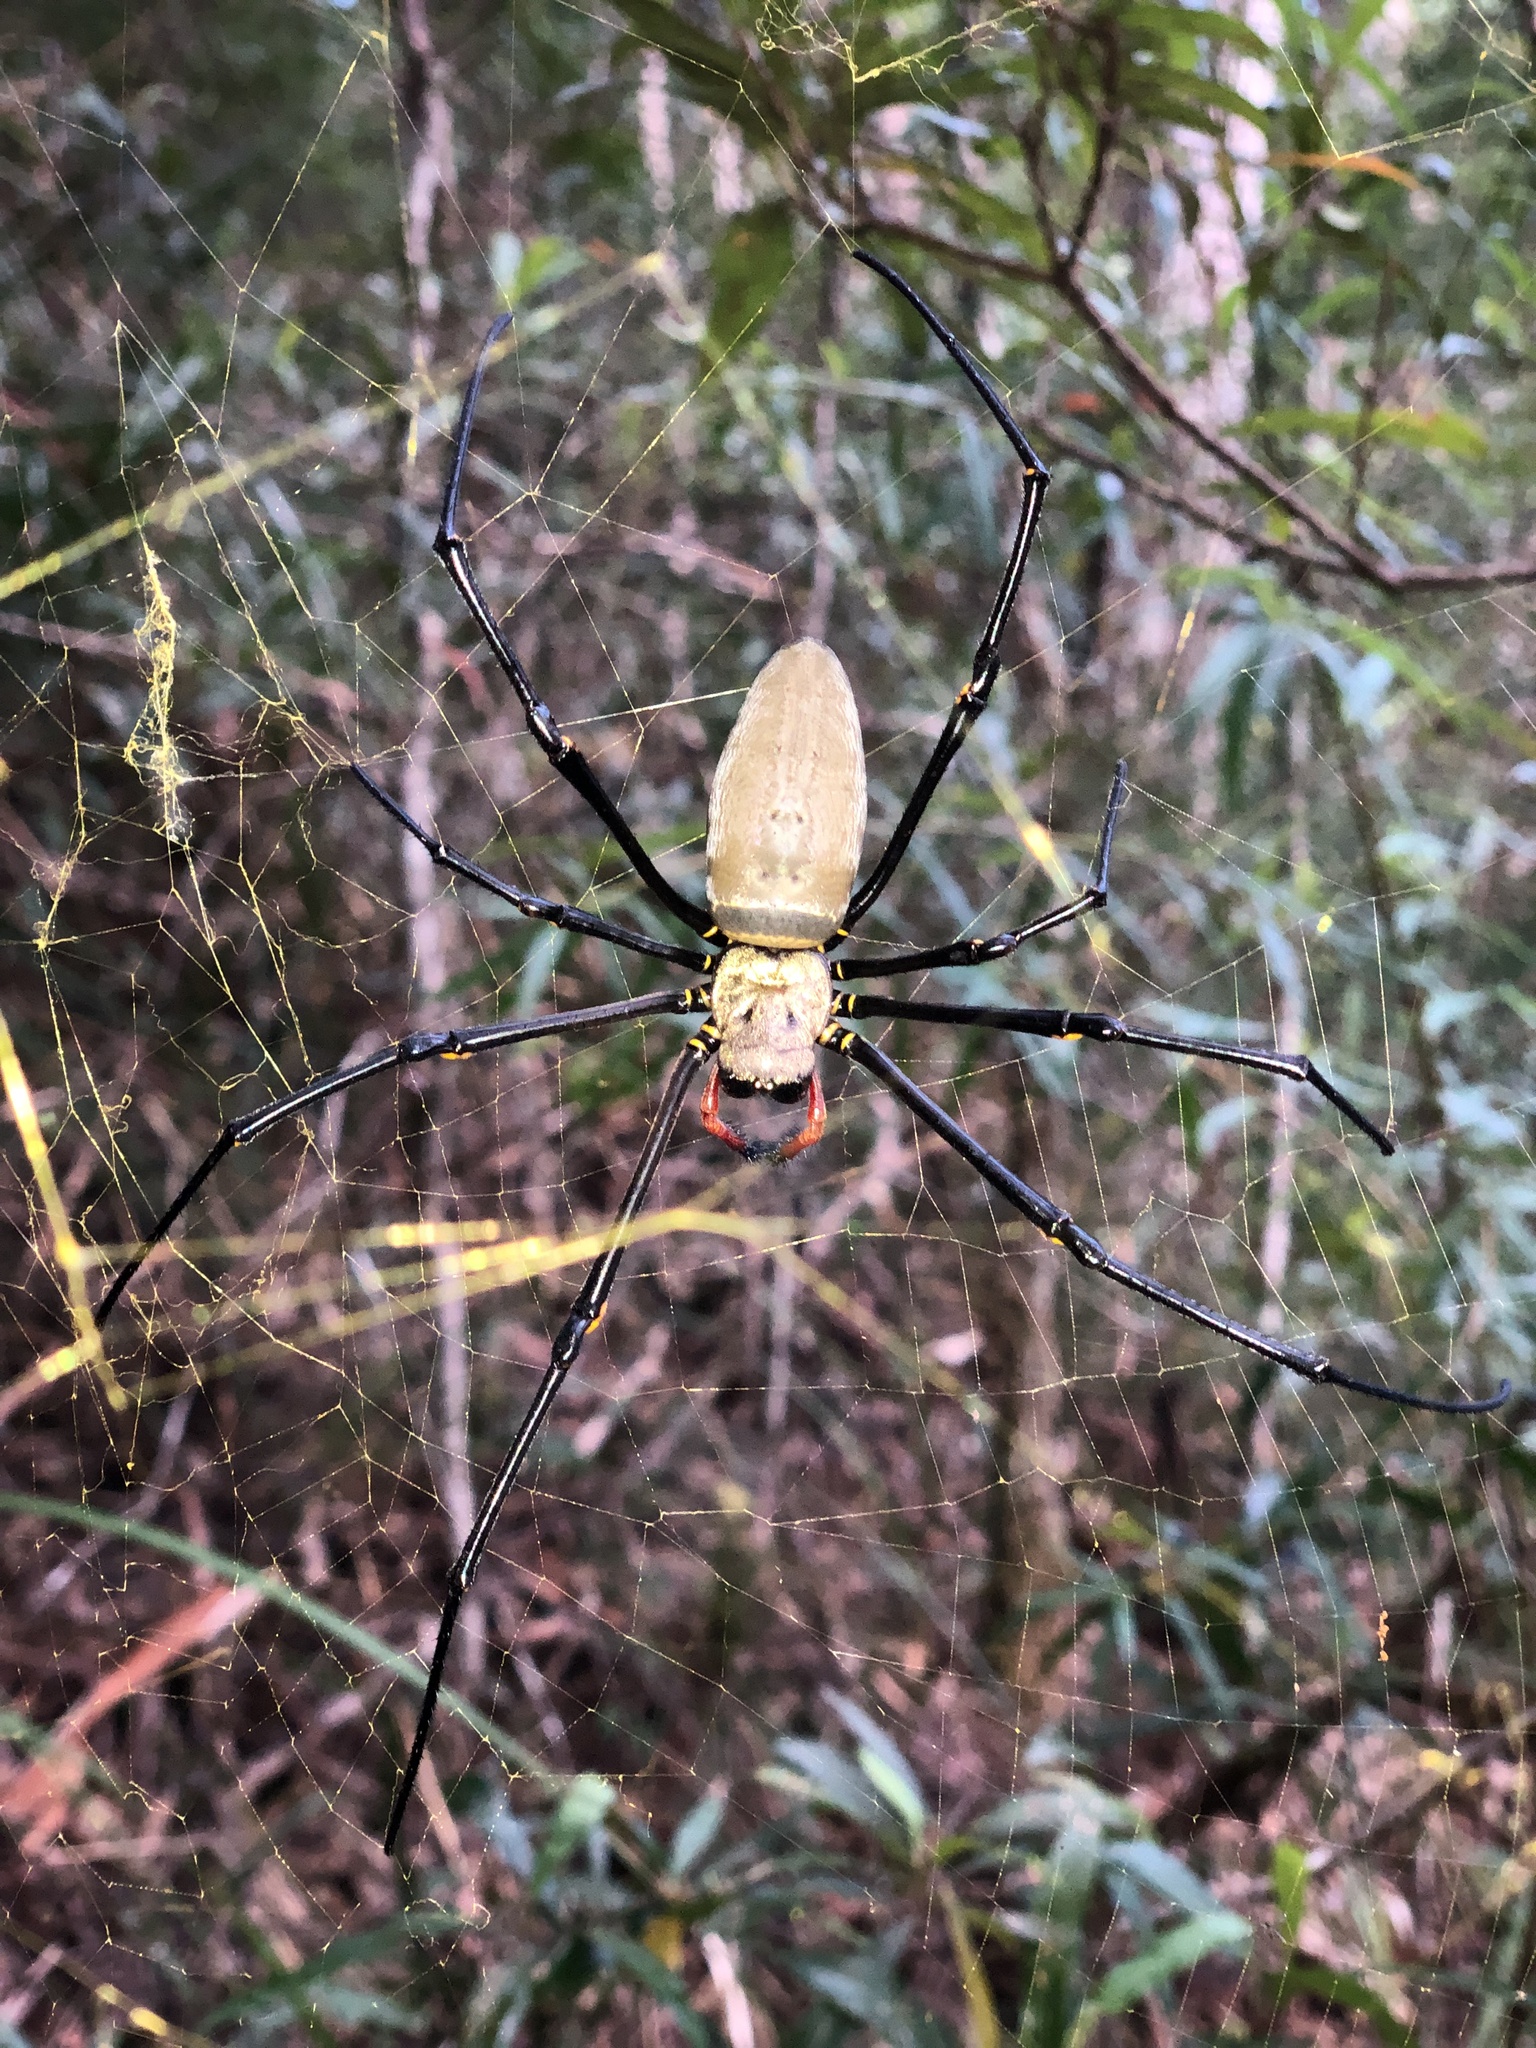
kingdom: Animalia
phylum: Arthropoda
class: Arachnida
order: Araneae
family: Araneidae
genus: Nephila
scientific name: Nephila pilipes
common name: Giant golden orb weaver
